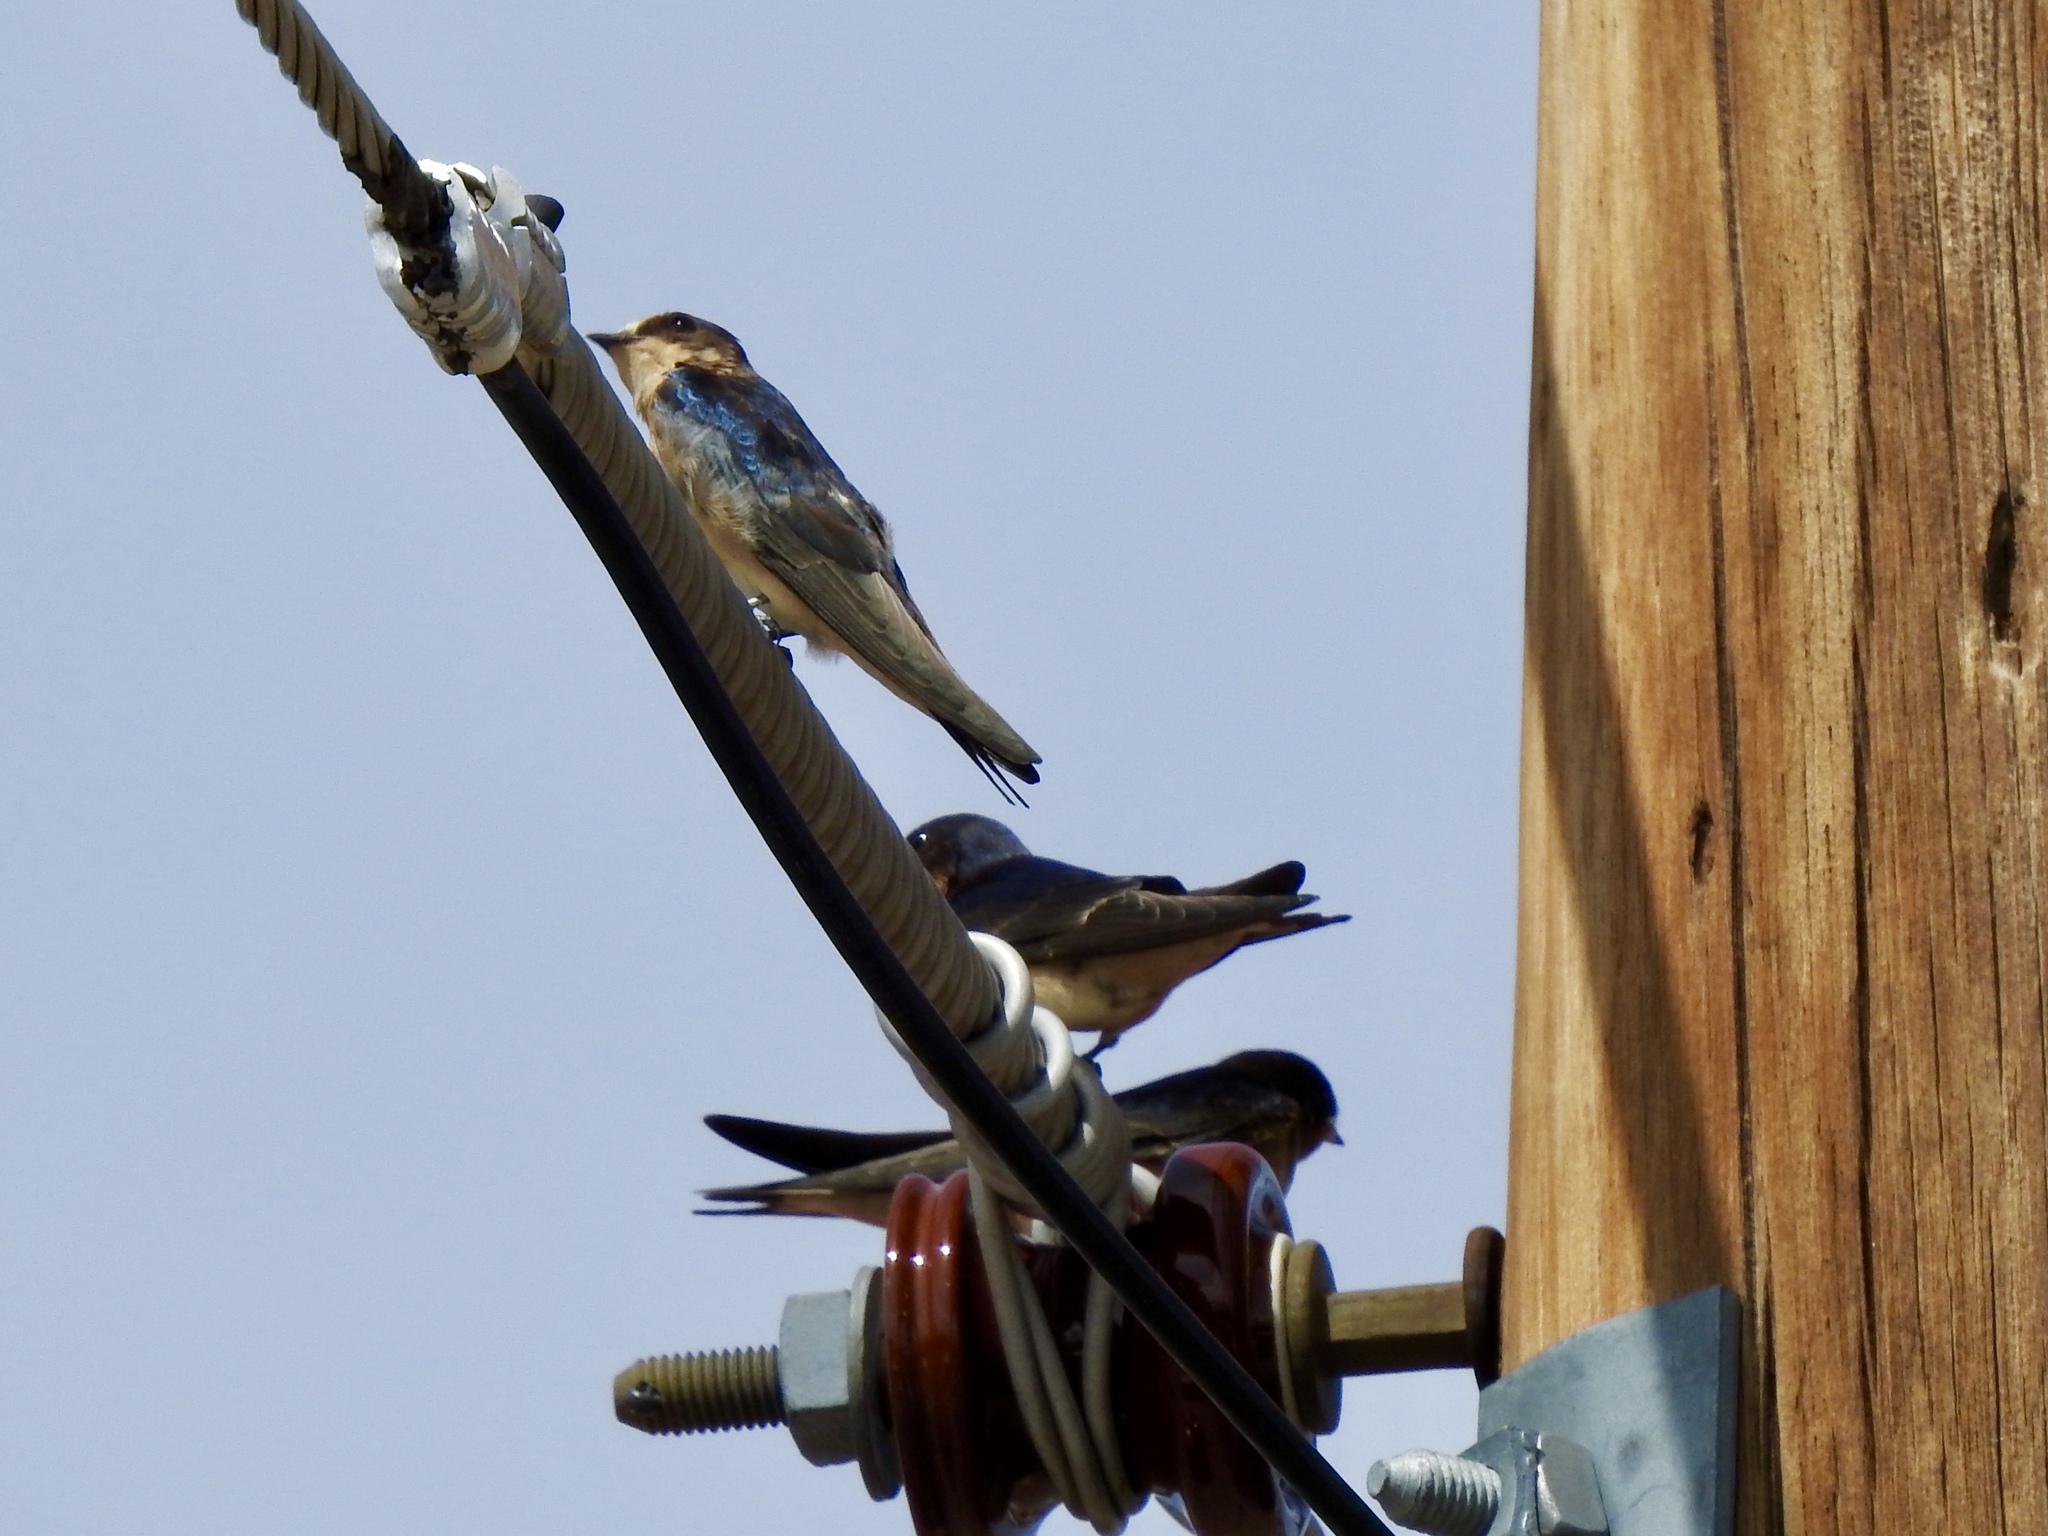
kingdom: Animalia
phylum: Chordata
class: Aves
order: Passeriformes
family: Hirundinidae
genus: Hirundo
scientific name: Hirundo rustica
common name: Barn swallow
